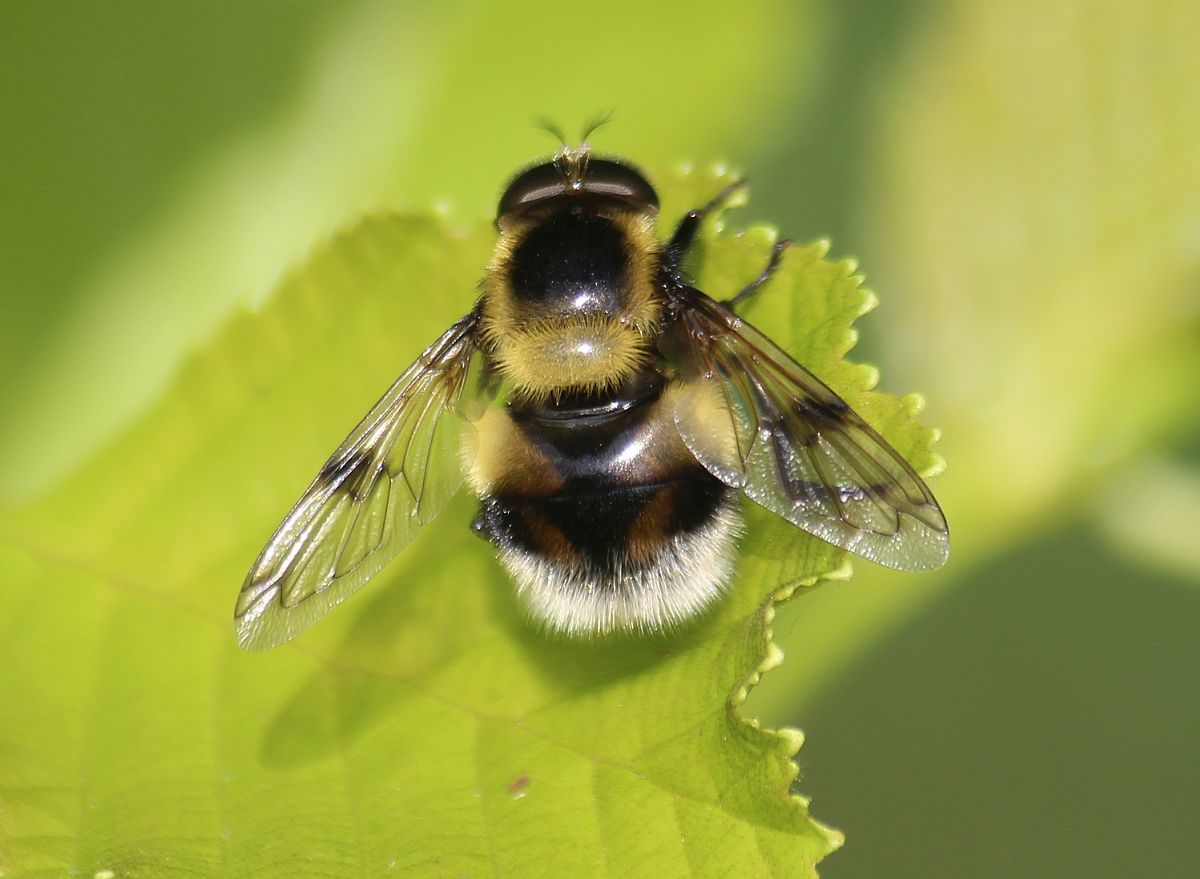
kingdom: Animalia
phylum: Arthropoda
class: Insecta
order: Diptera
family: Syrphidae
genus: Volucella
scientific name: Volucella bombylans
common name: Bumble bee hover fly
